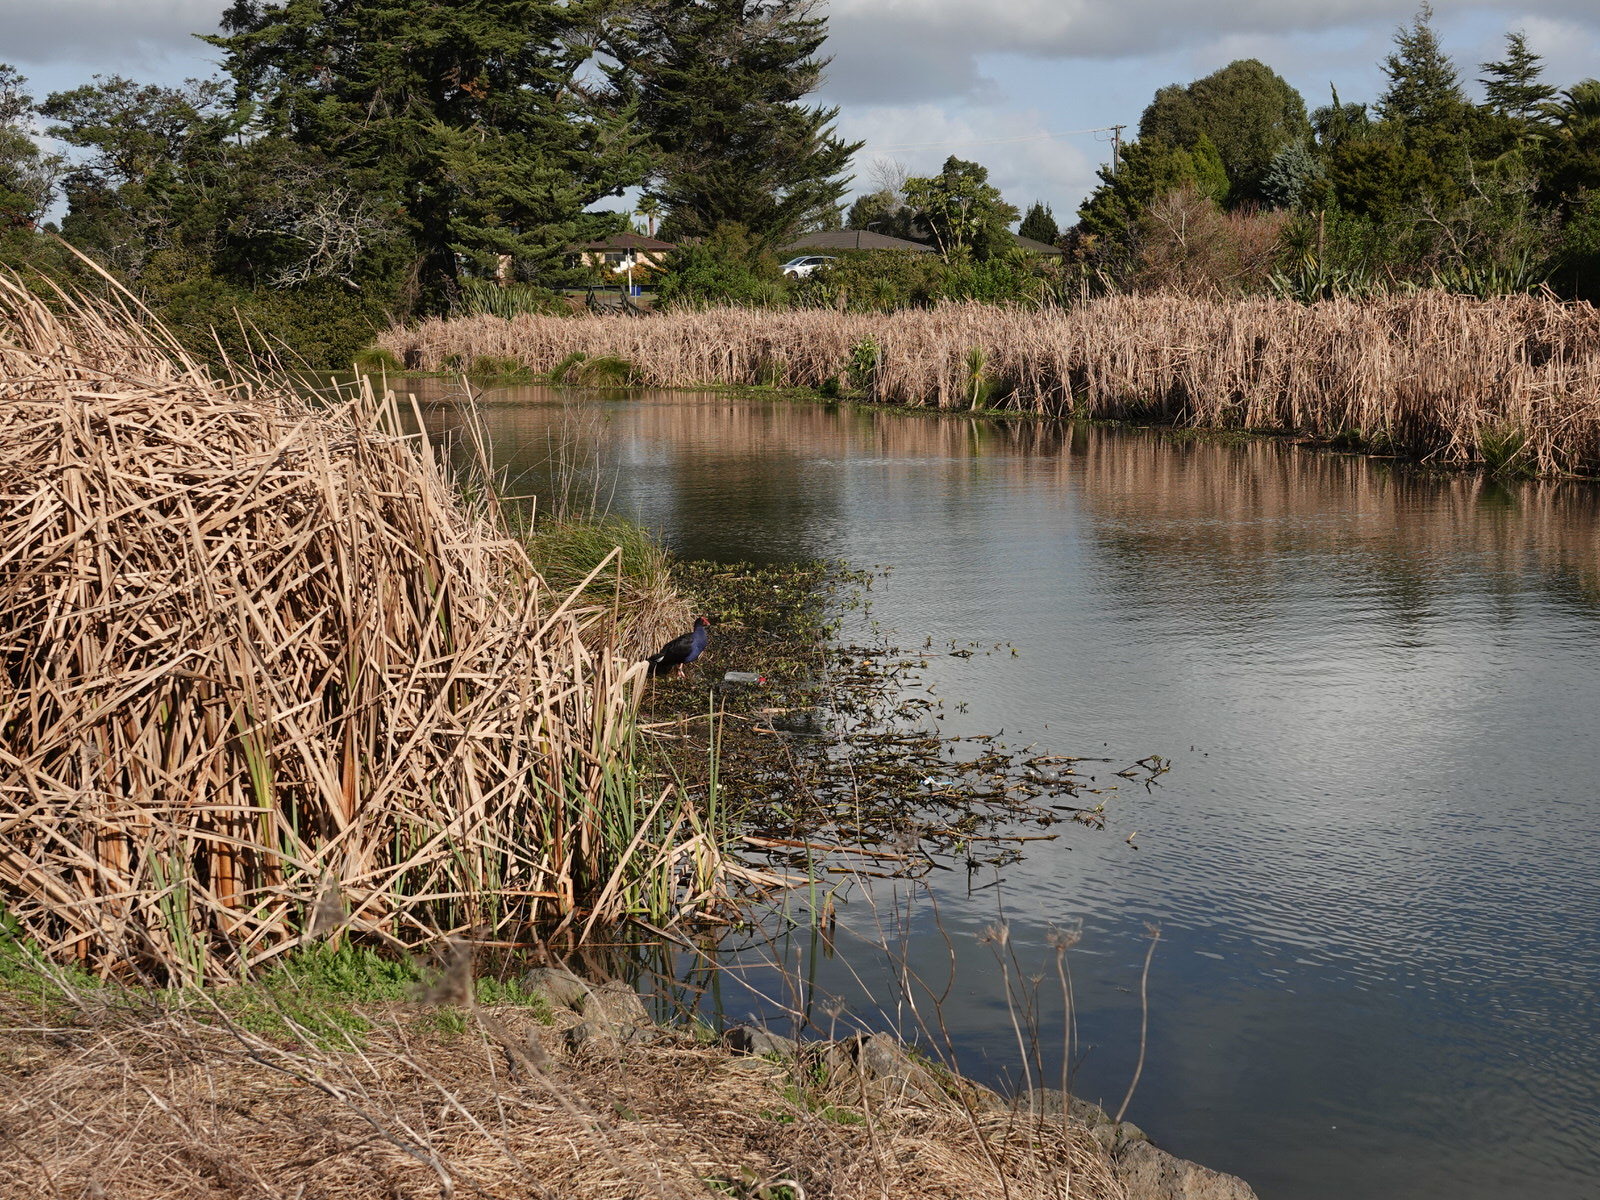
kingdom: Animalia
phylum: Chordata
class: Aves
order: Gruiformes
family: Rallidae
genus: Porphyrio
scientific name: Porphyrio melanotus
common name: Australasian swamphen
